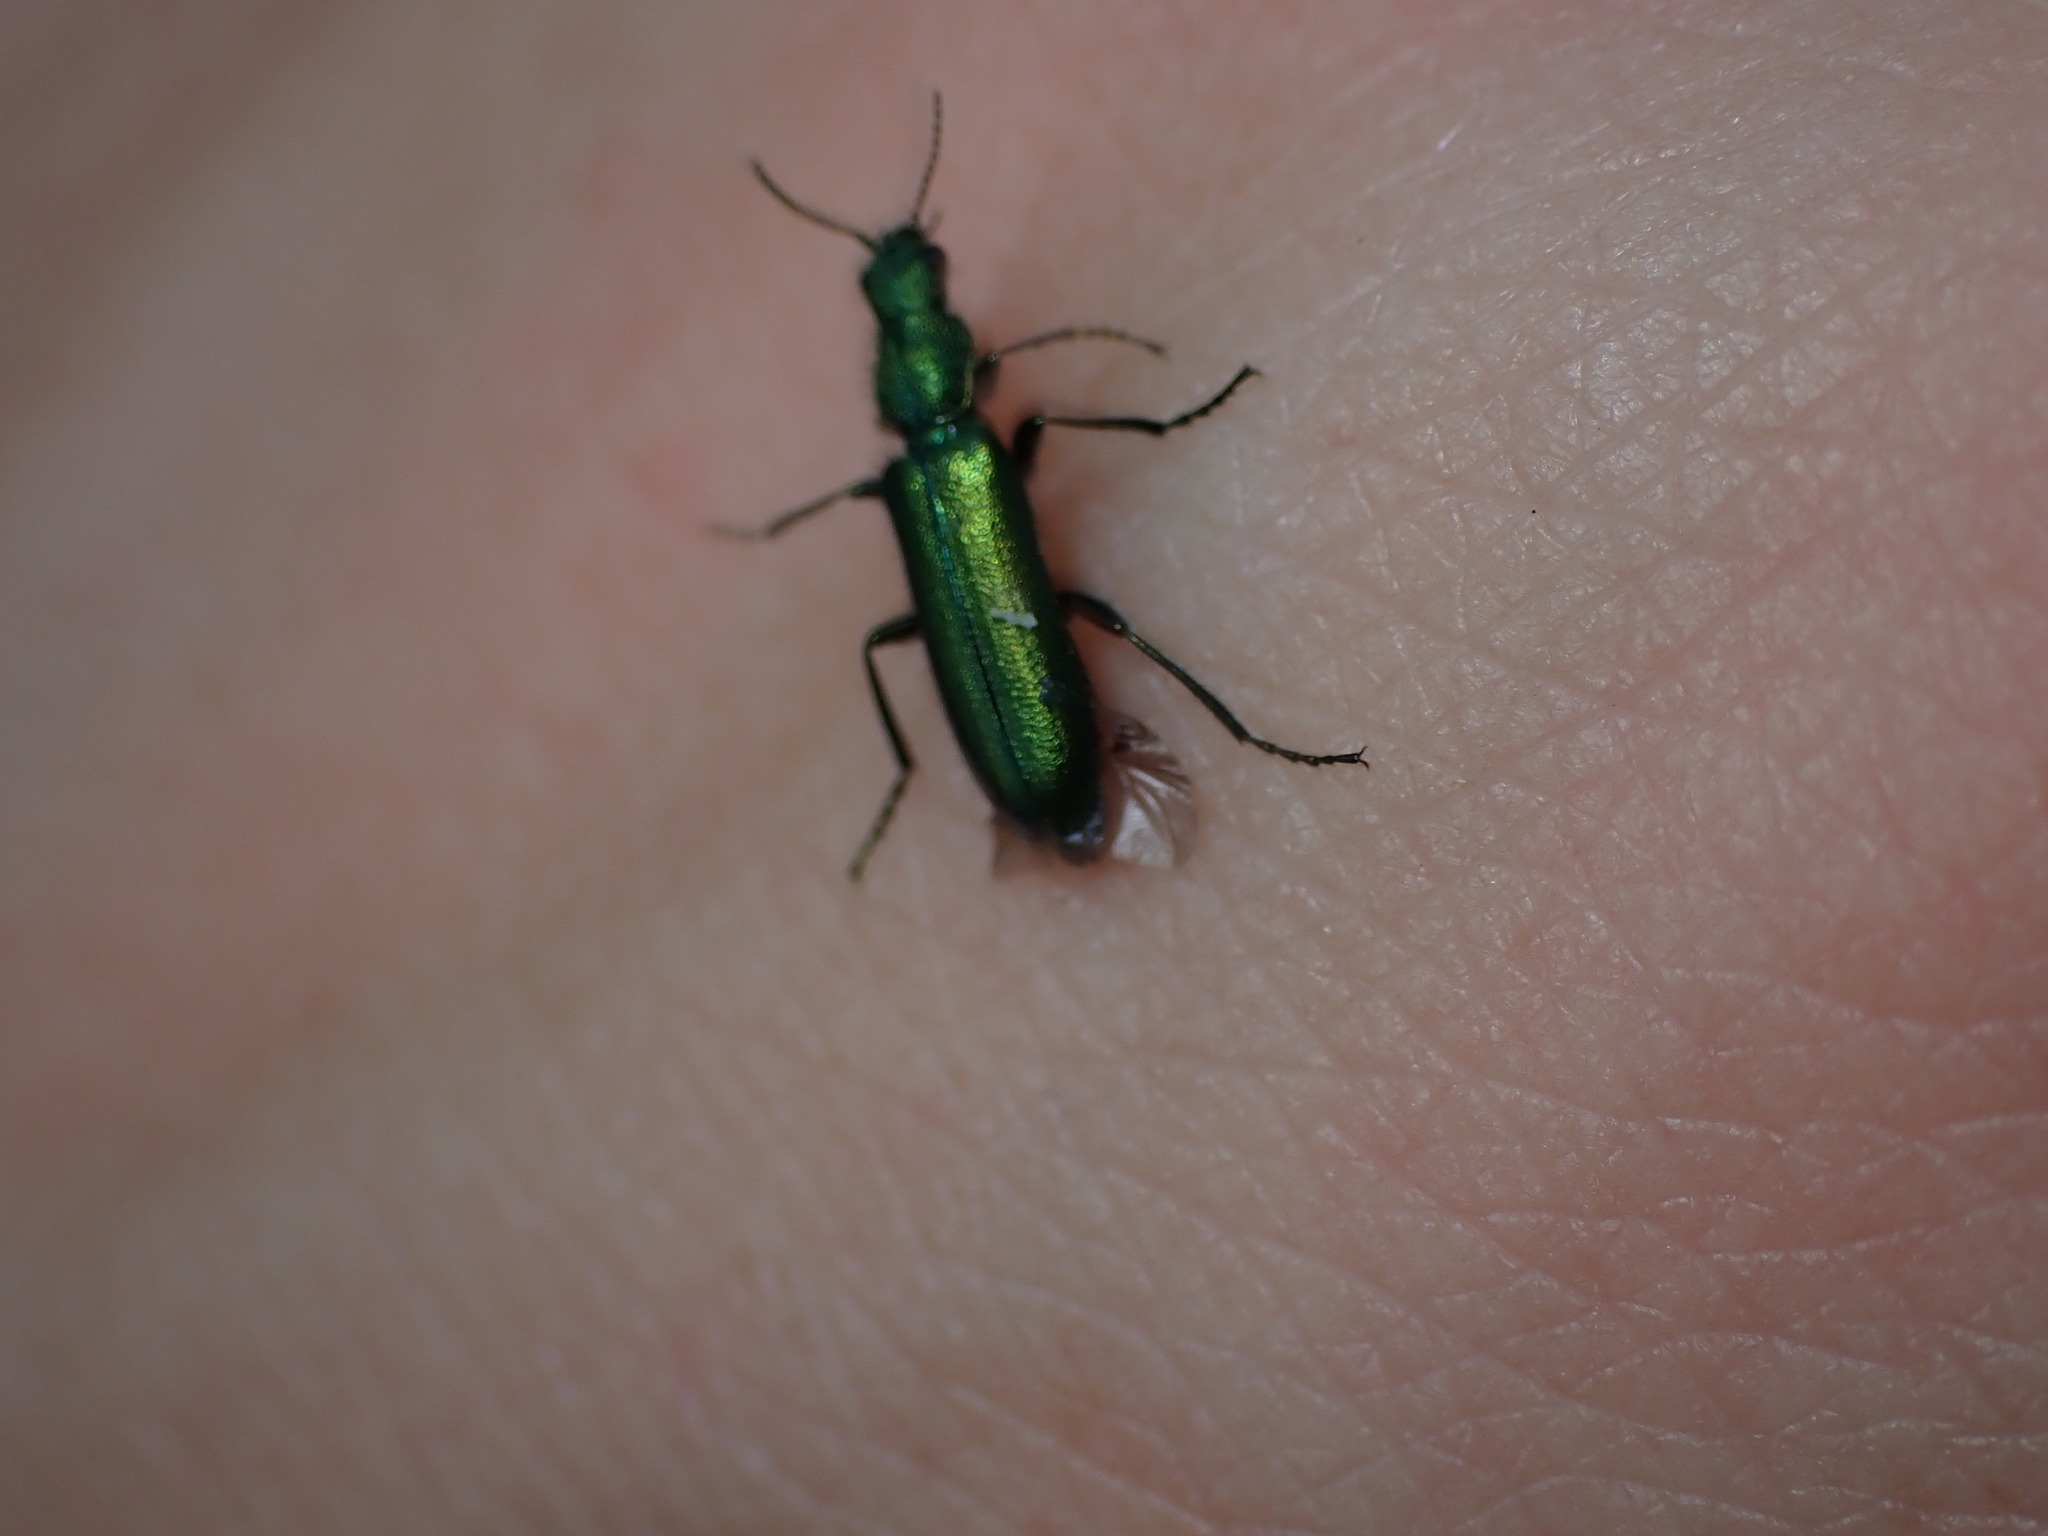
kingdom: Animalia
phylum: Arthropoda
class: Insecta
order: Coleoptera
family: Dasytidae
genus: Psilothrix
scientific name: Psilothrix viridicoerulea
